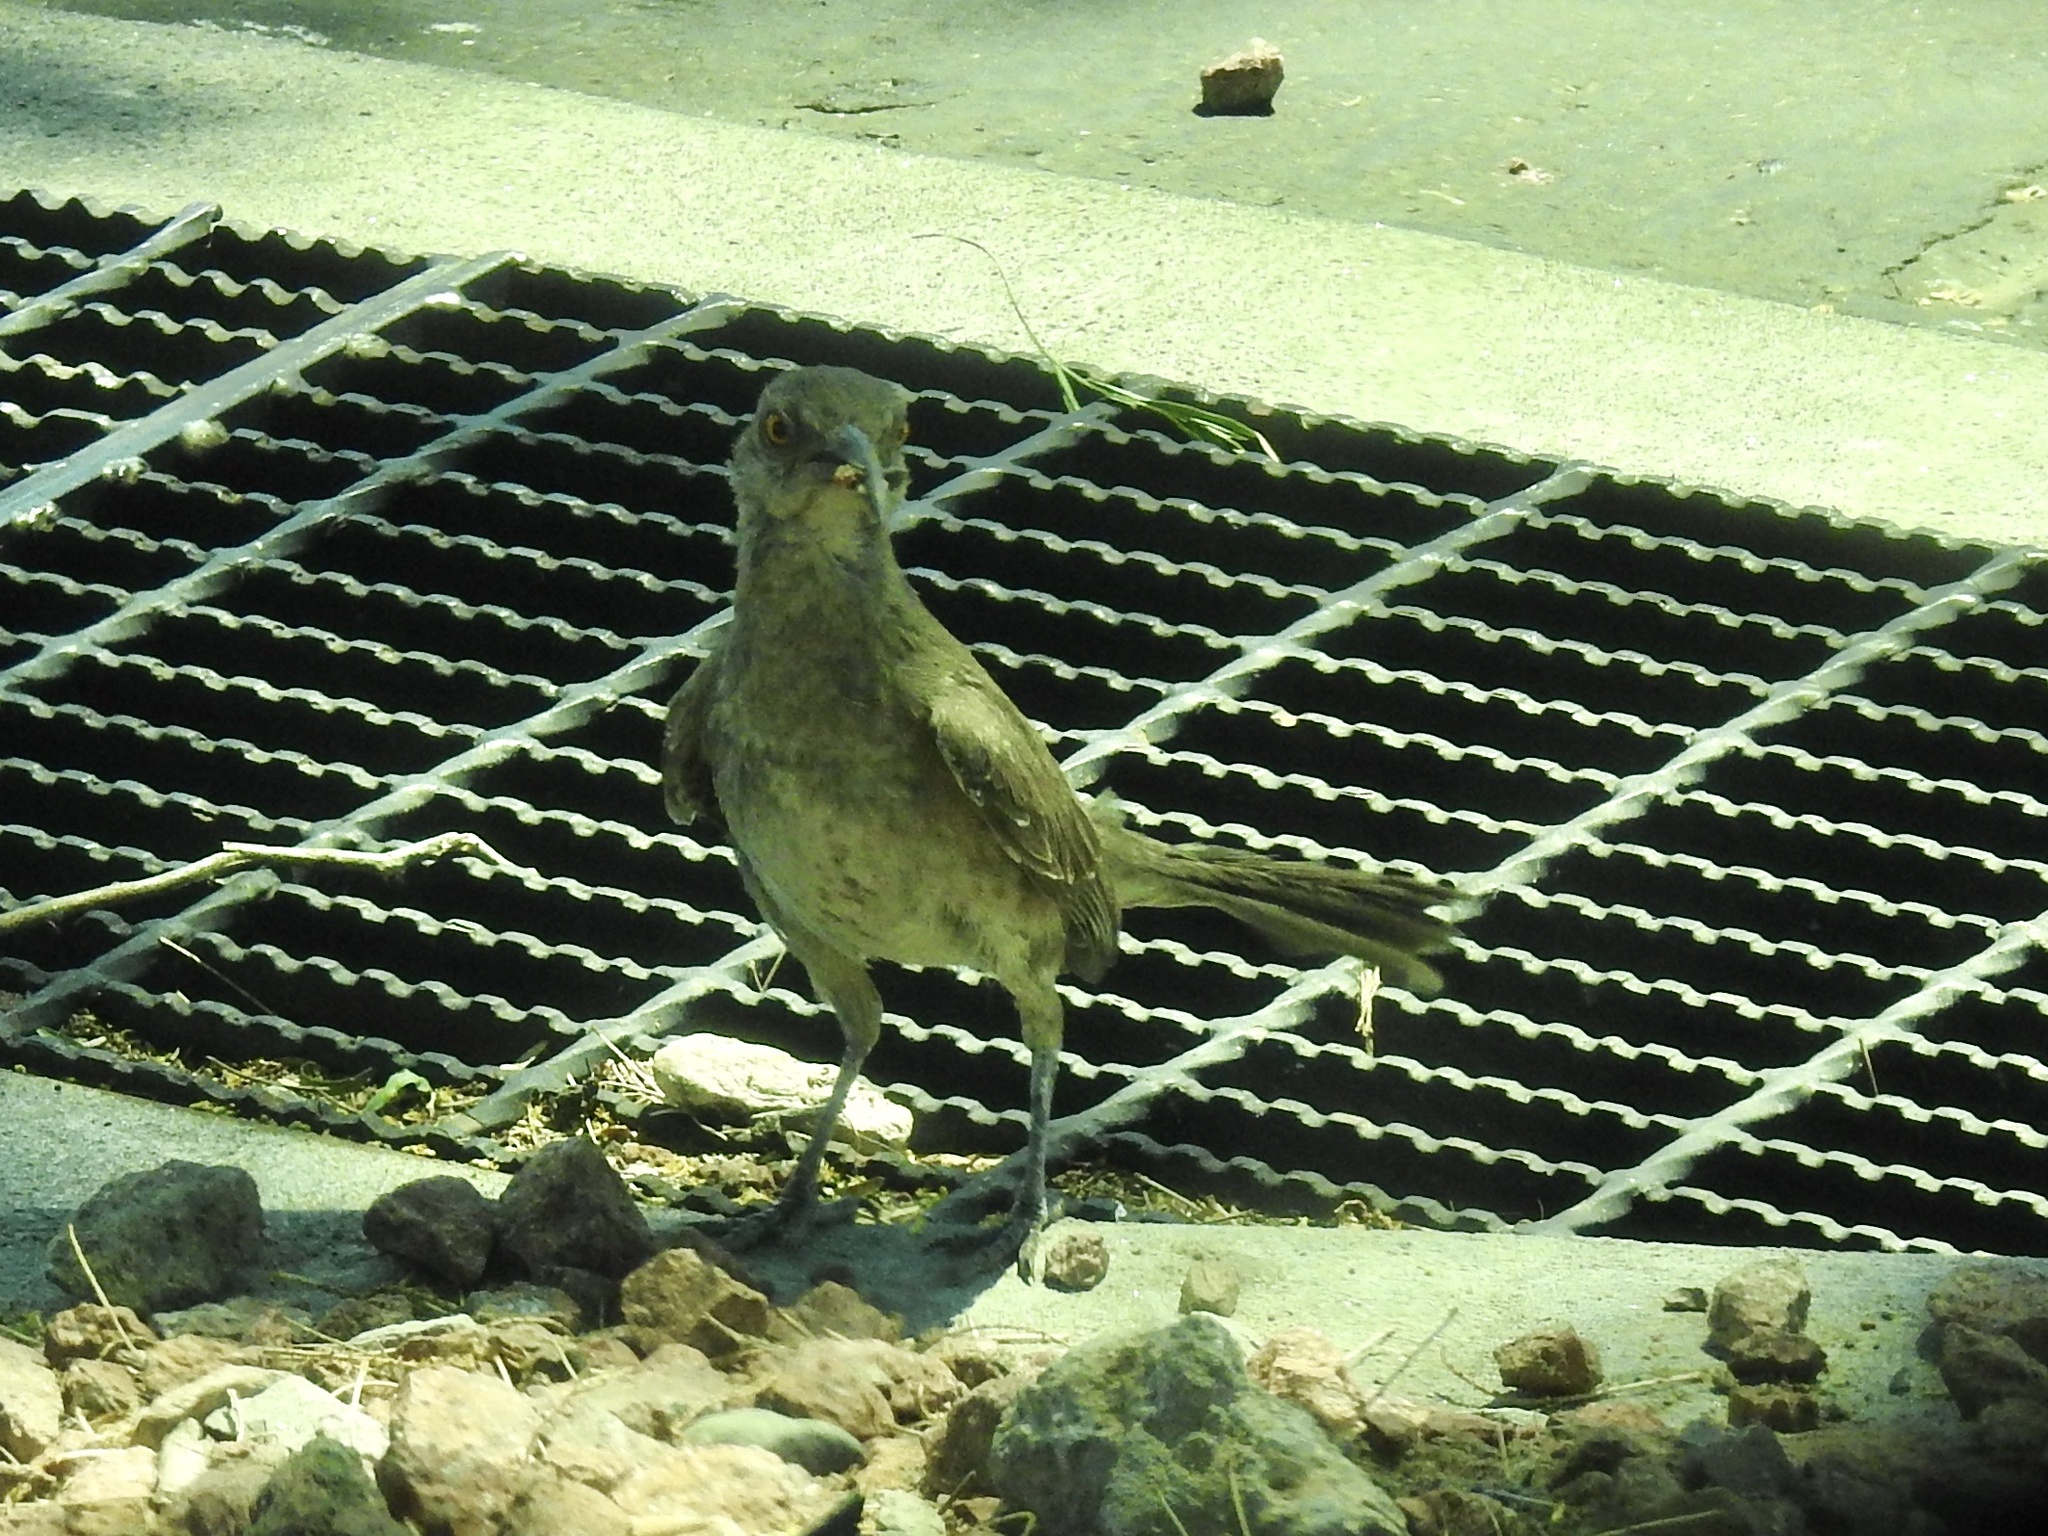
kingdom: Animalia
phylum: Chordata
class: Aves
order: Passeriformes
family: Mimidae
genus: Toxostoma
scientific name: Toxostoma curvirostre
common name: Curve-billed thrasher
